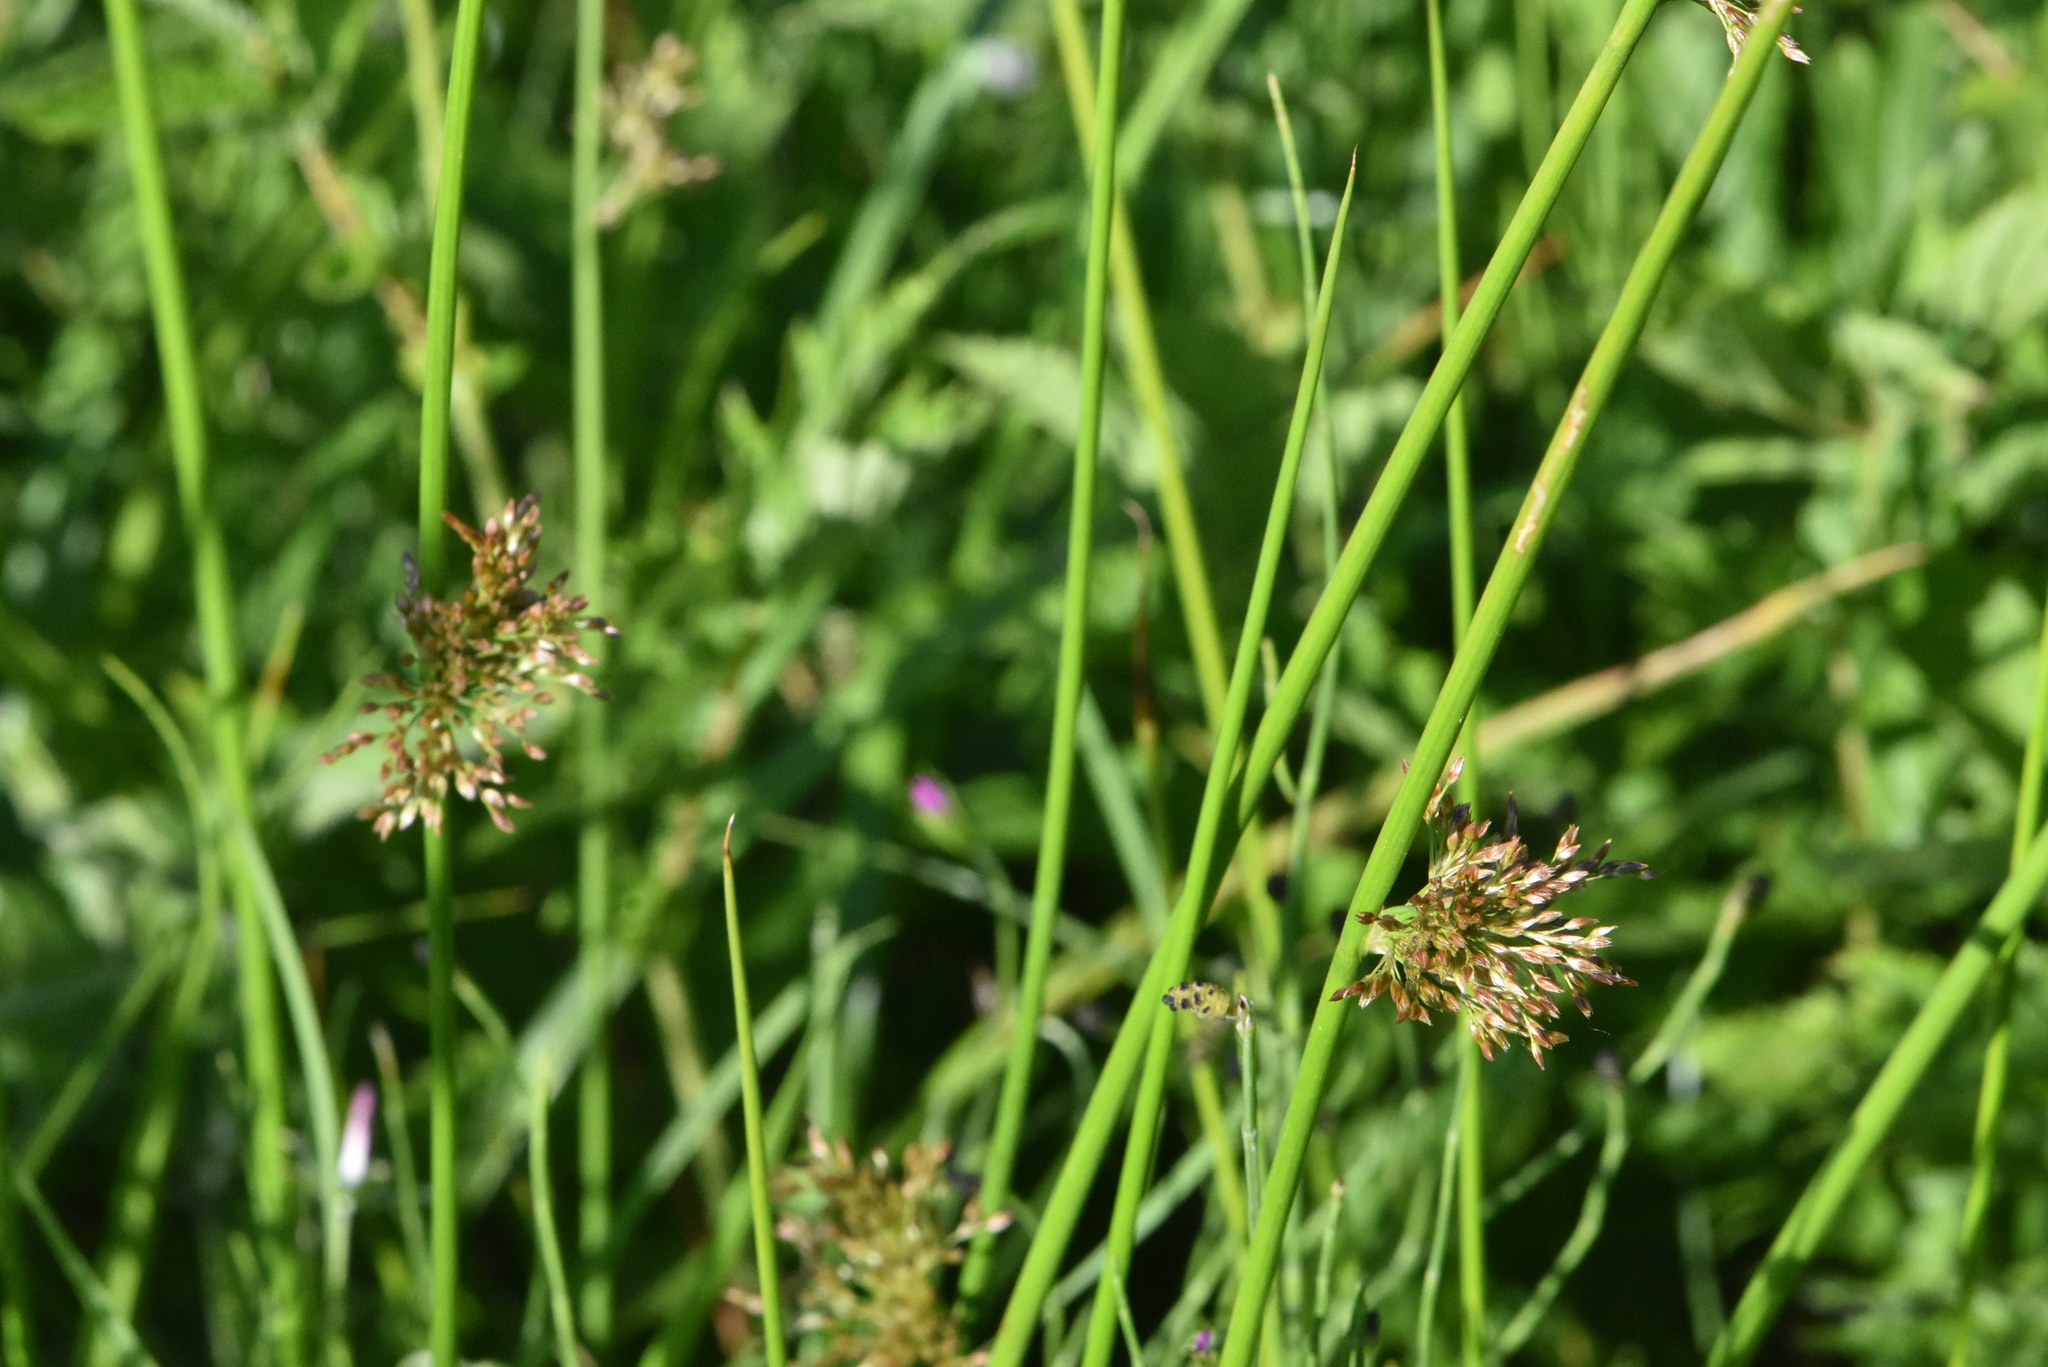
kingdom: Plantae
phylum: Tracheophyta
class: Liliopsida
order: Poales
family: Juncaceae
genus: Juncus
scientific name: Juncus effusus
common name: Soft rush
